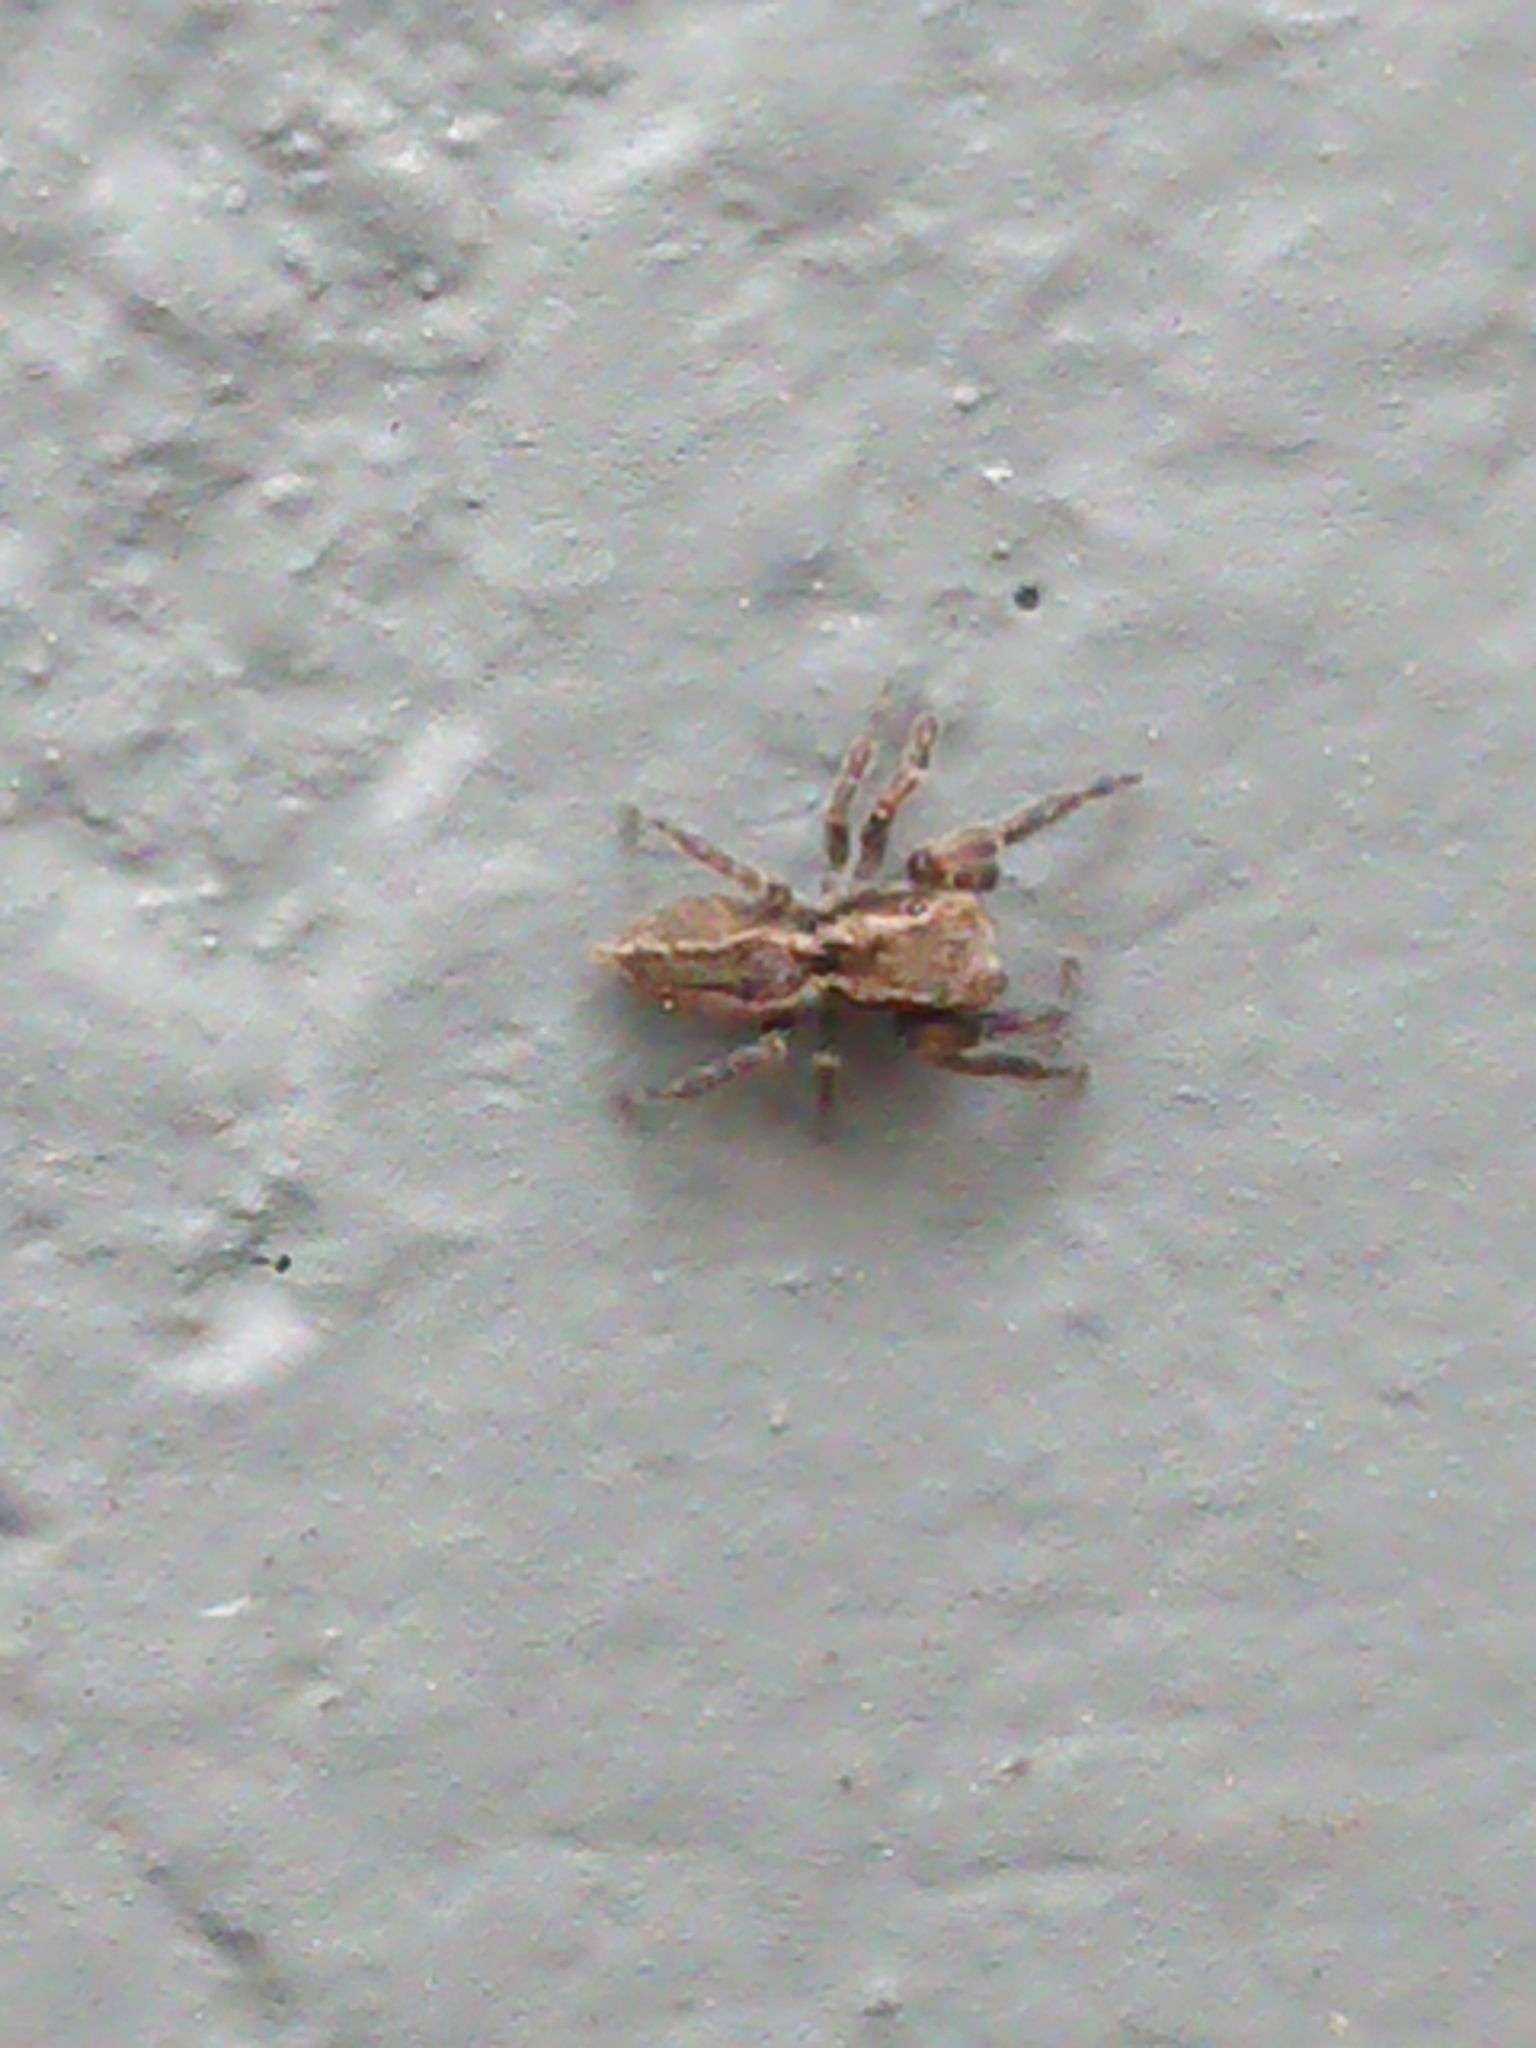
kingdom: Animalia
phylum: Arthropoda
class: Arachnida
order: Araneae
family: Salticidae
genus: Trite
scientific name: Trite auricoma
